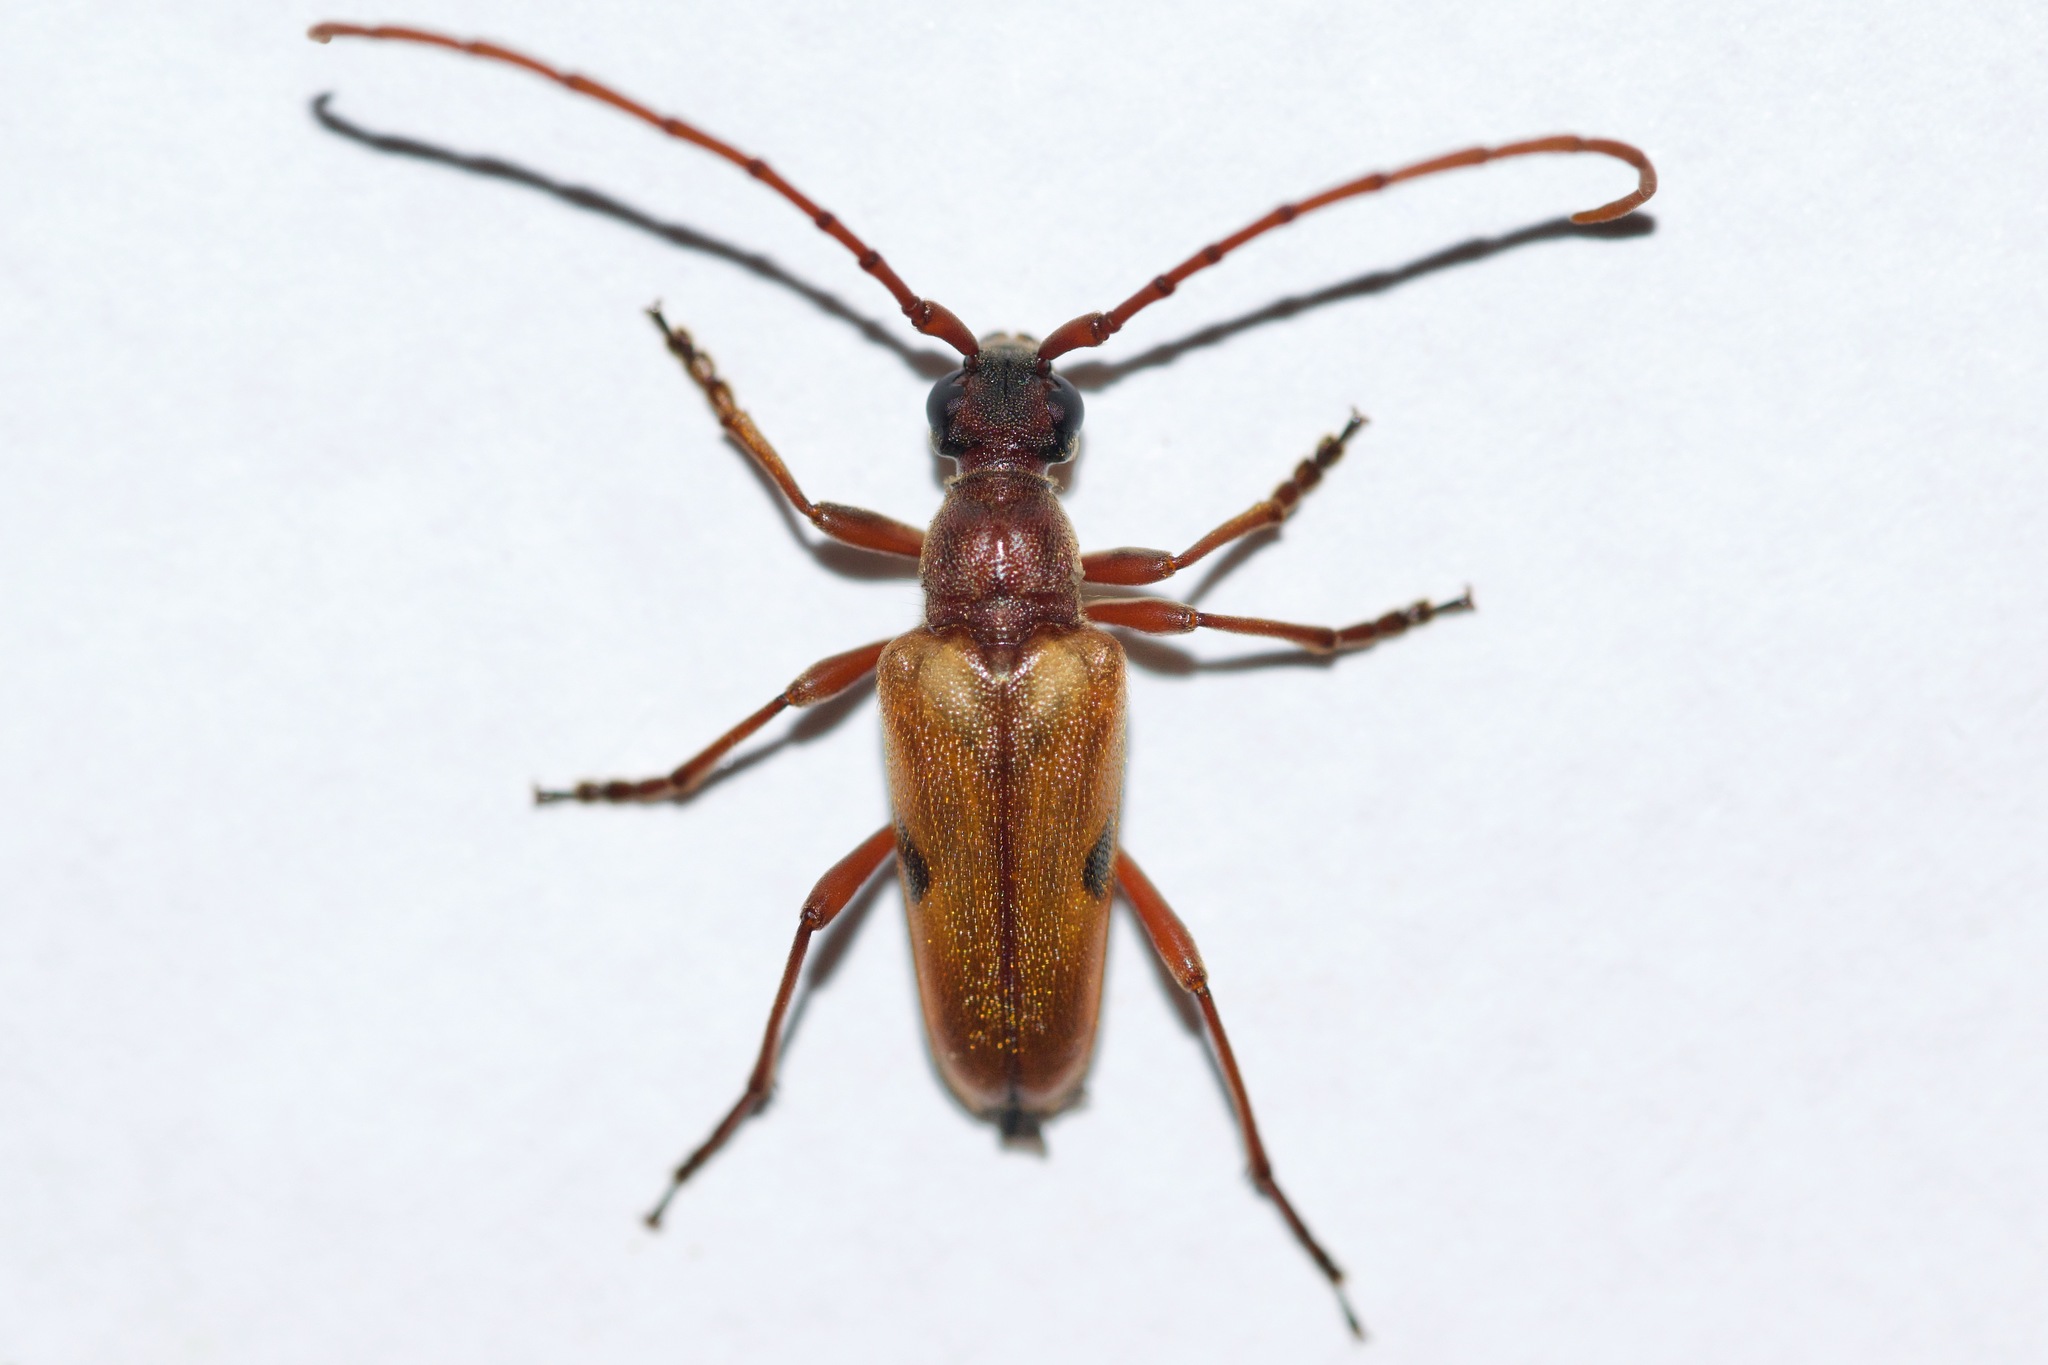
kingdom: Animalia
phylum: Arthropoda
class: Insecta
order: Coleoptera
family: Cerambycidae
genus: Lepturopsis
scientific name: Lepturopsis biforis
